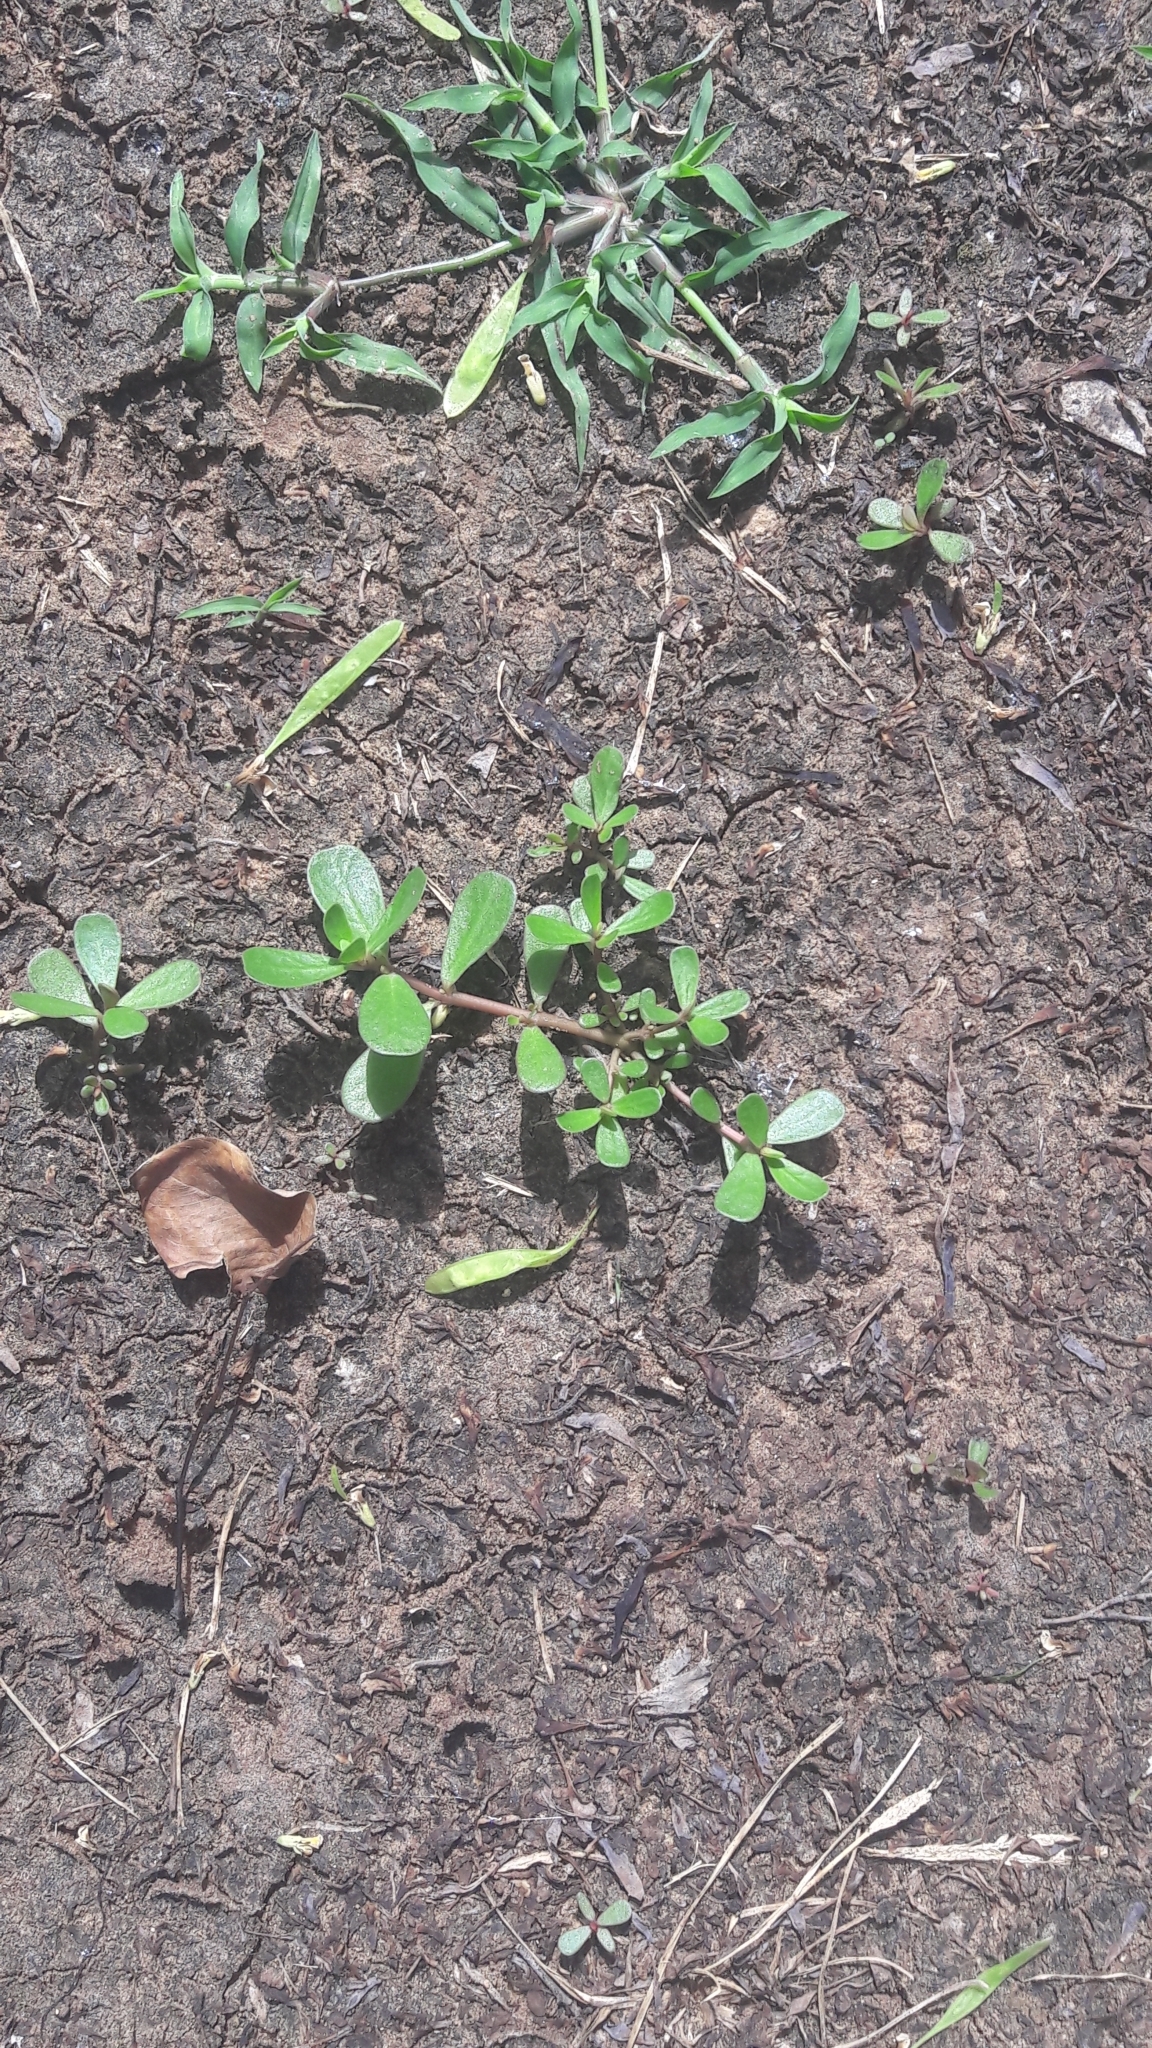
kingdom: Plantae
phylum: Tracheophyta
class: Magnoliopsida
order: Caryophyllales
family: Portulacaceae
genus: Portulaca
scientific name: Portulaca oleracea
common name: Common purslane
